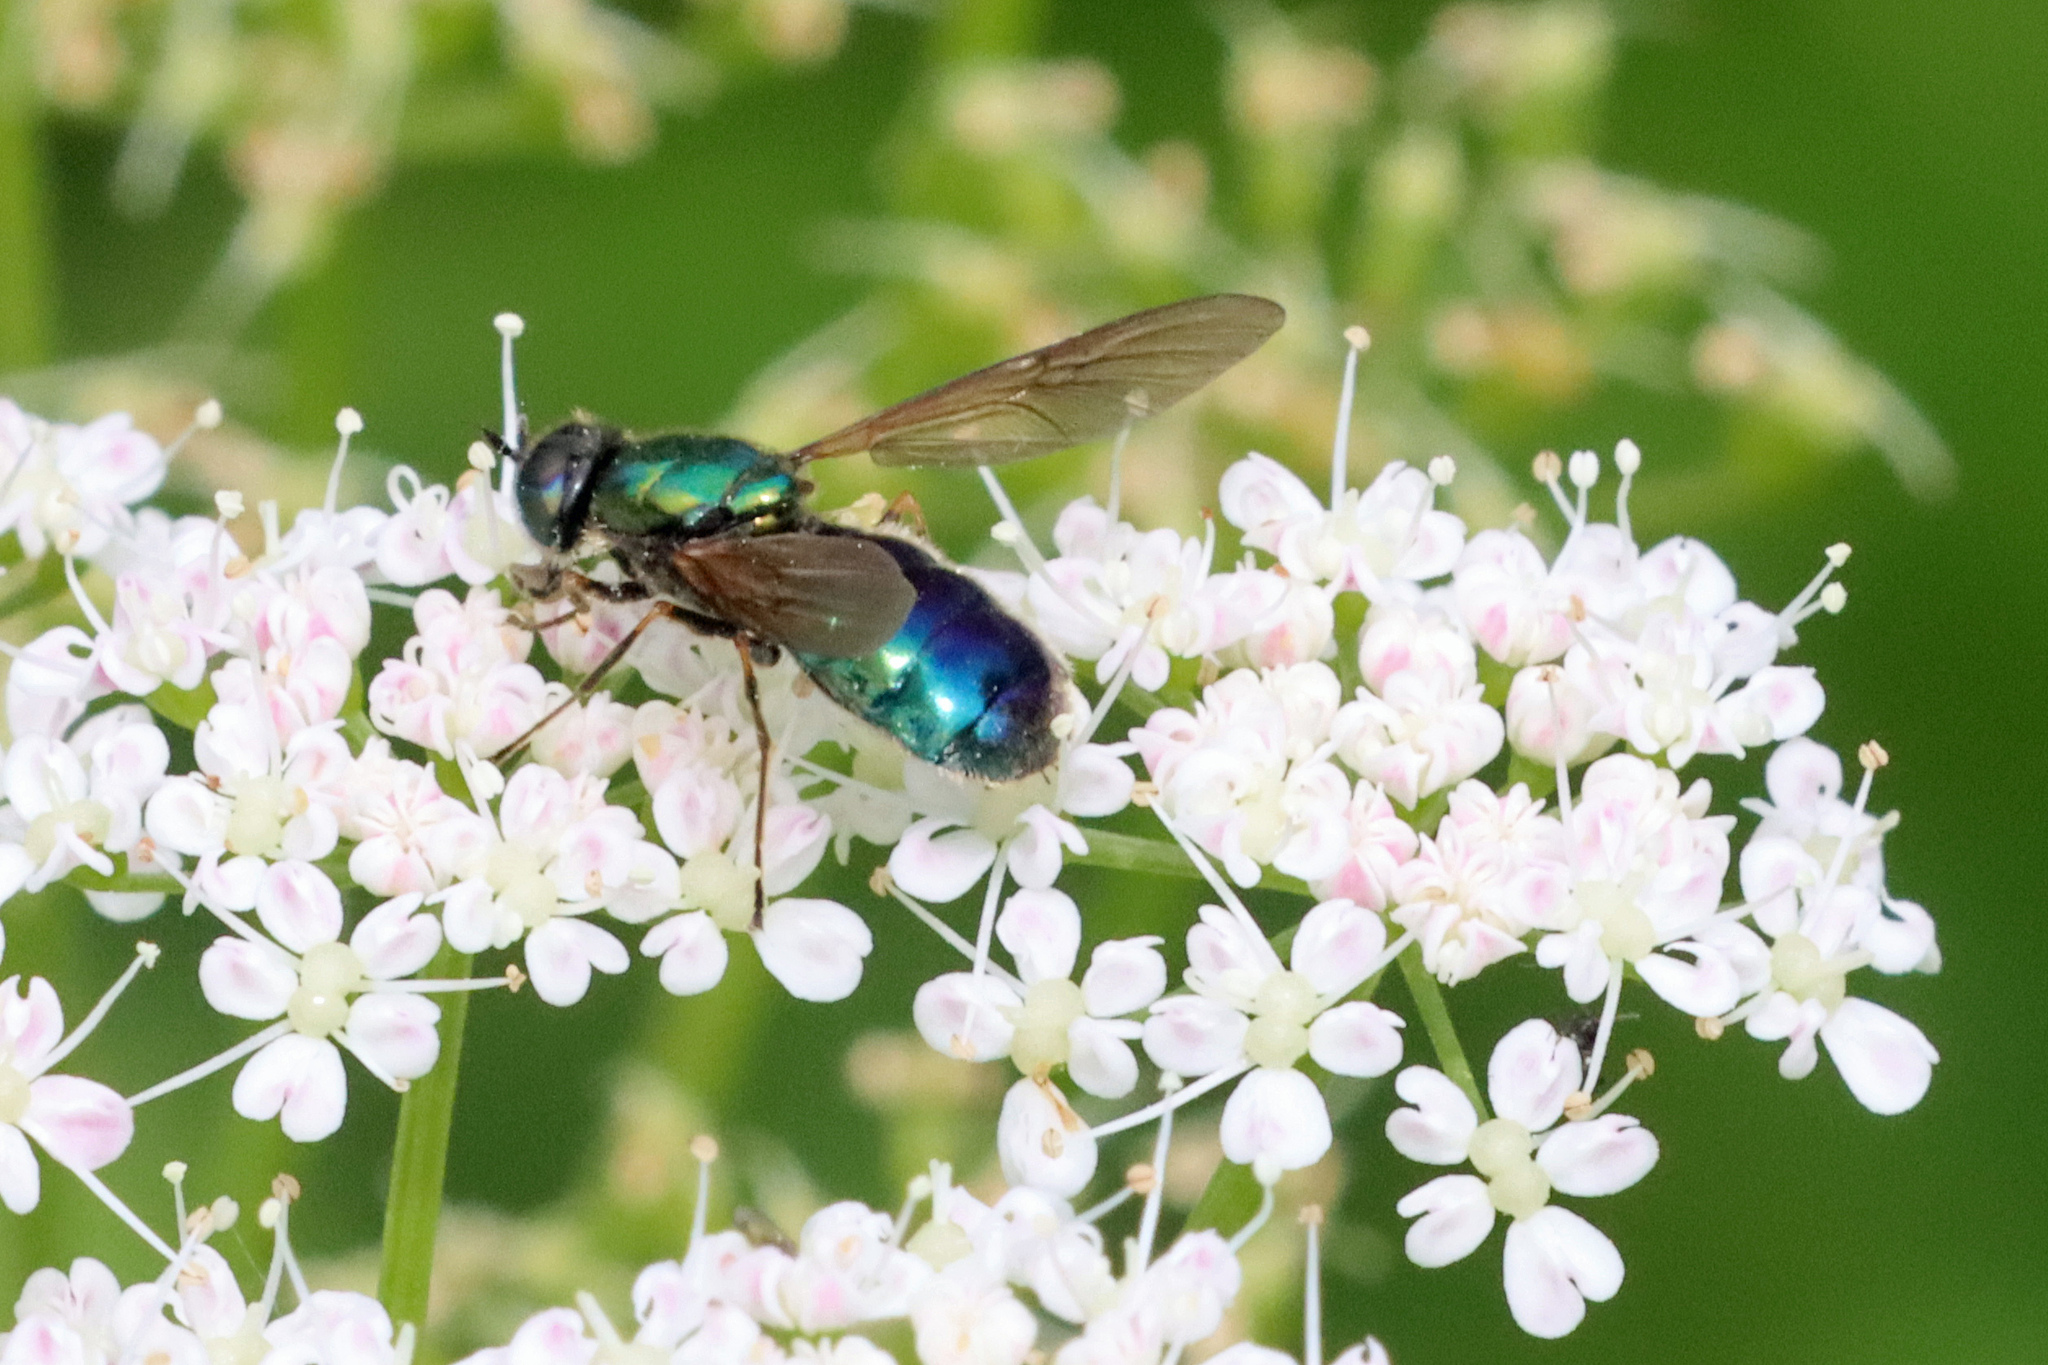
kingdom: Animalia
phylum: Arthropoda
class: Insecta
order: Diptera
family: Stratiomyidae
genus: Chloromyia
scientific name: Chloromyia formosa
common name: Soldier fly
